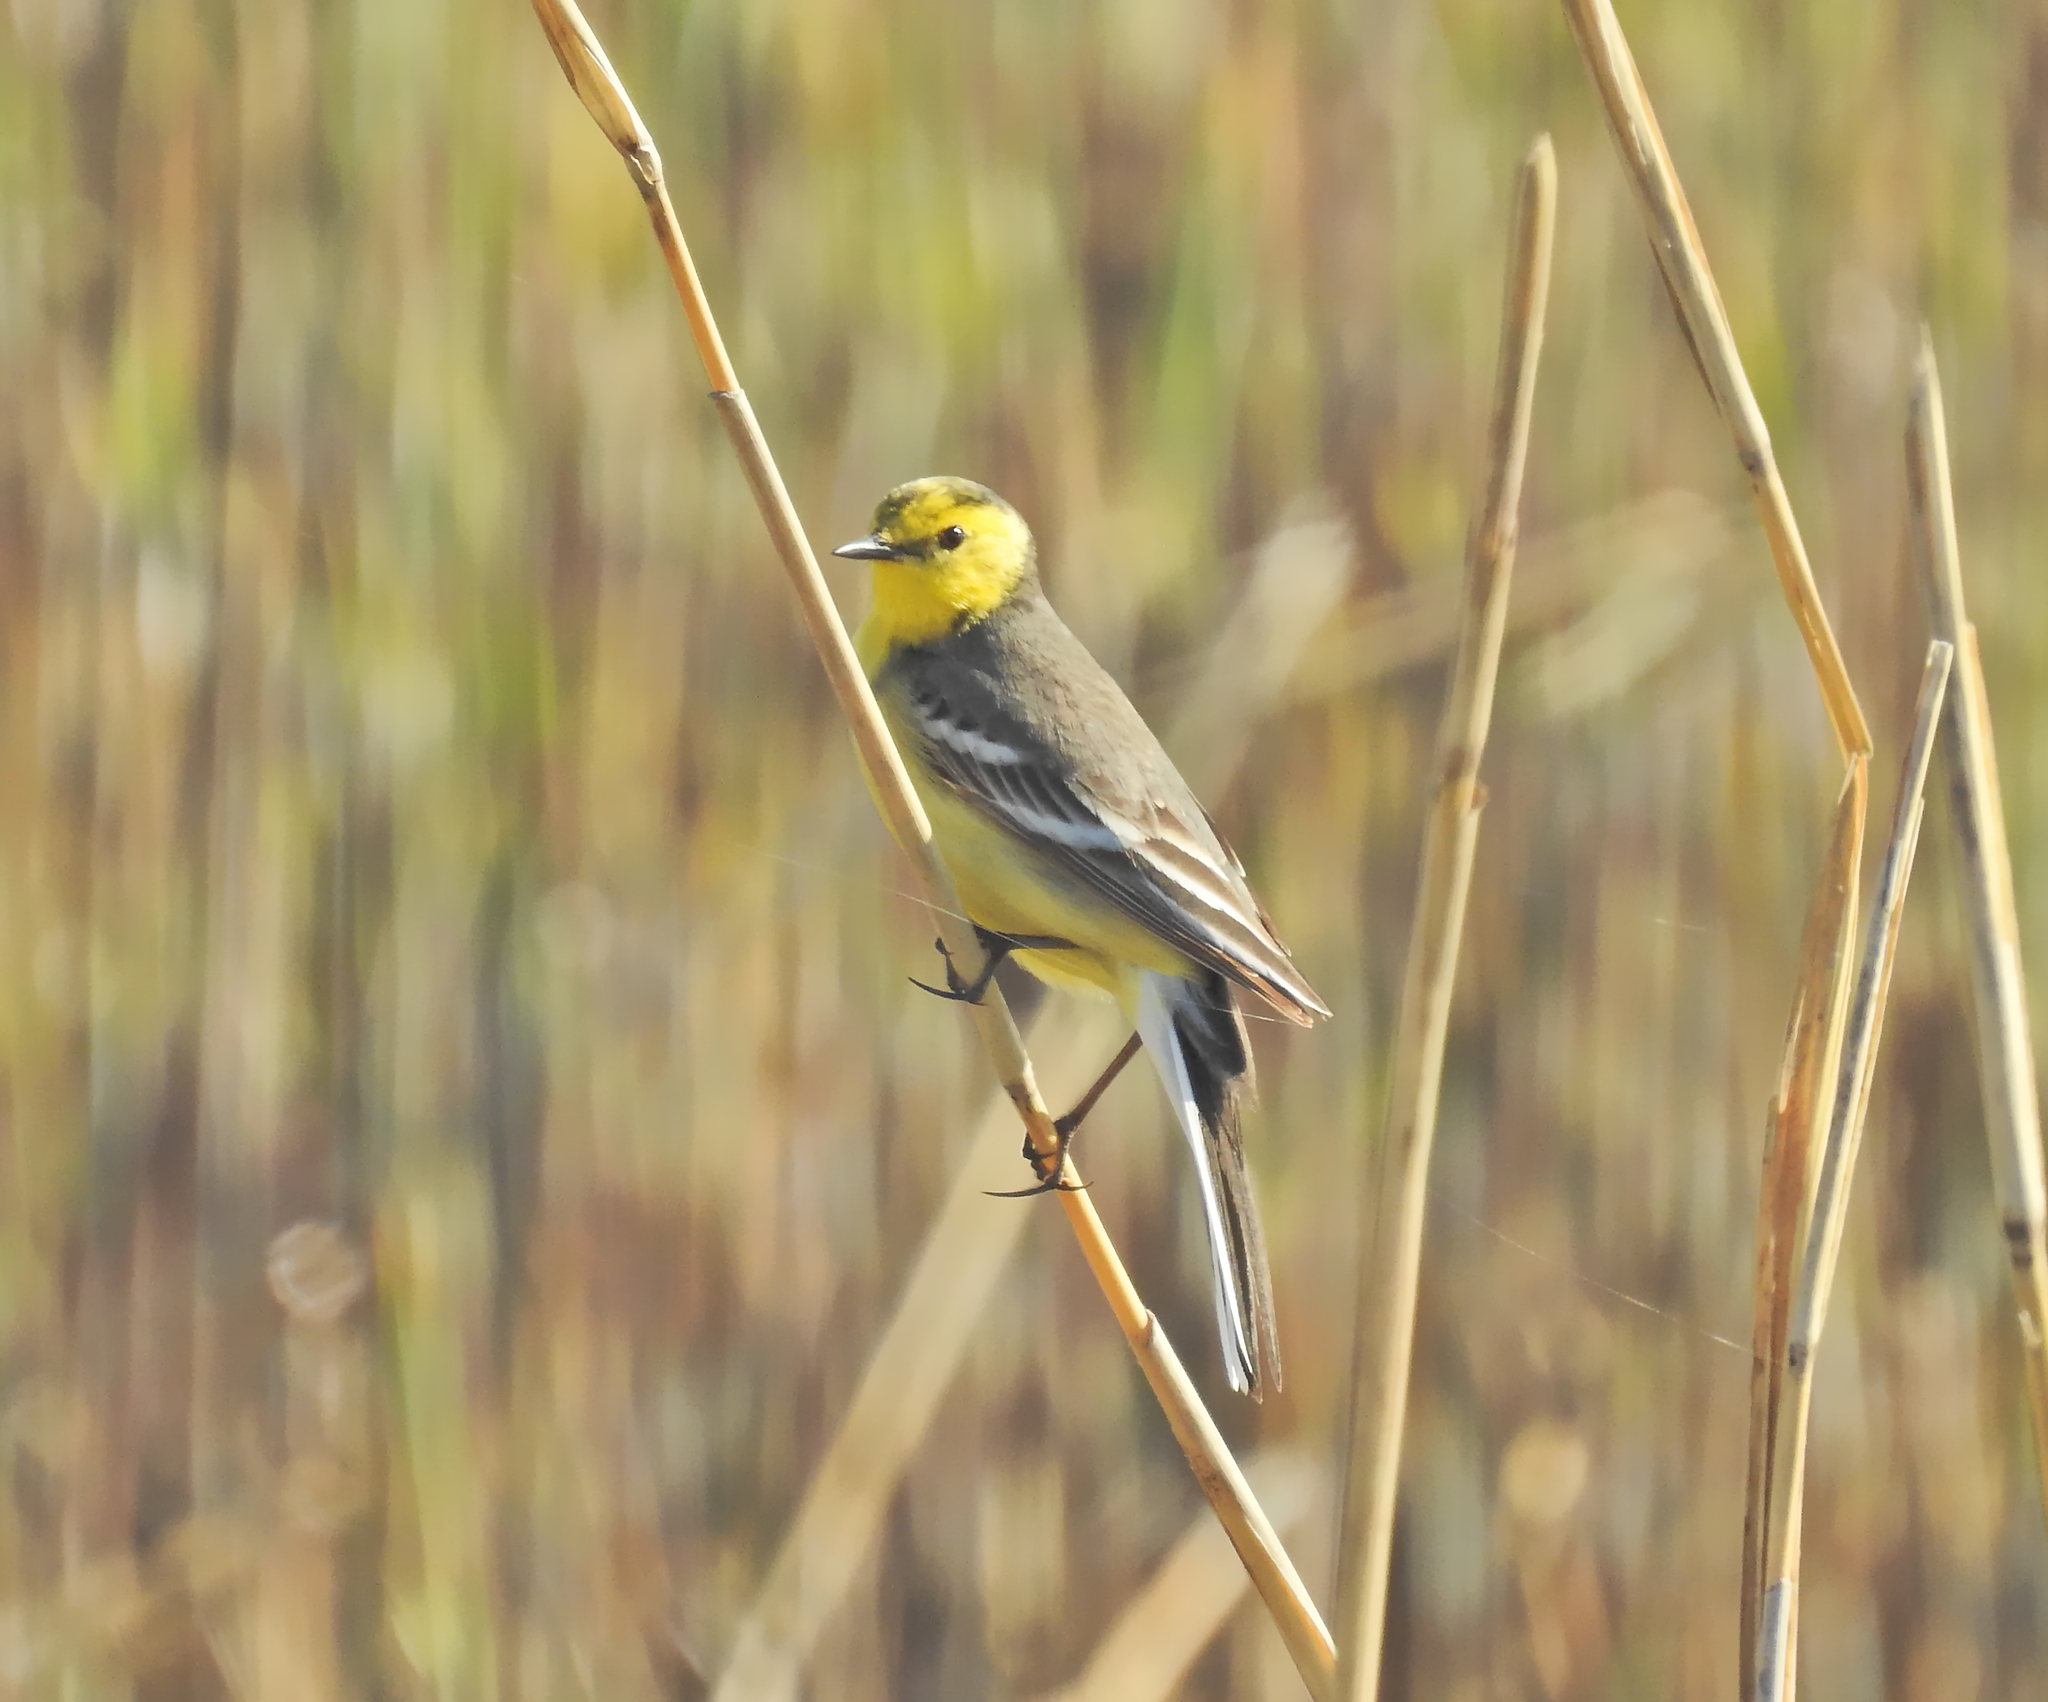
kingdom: Animalia
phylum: Chordata
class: Aves
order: Passeriformes
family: Motacillidae
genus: Motacilla
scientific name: Motacilla citreola
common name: Citrine wagtail
